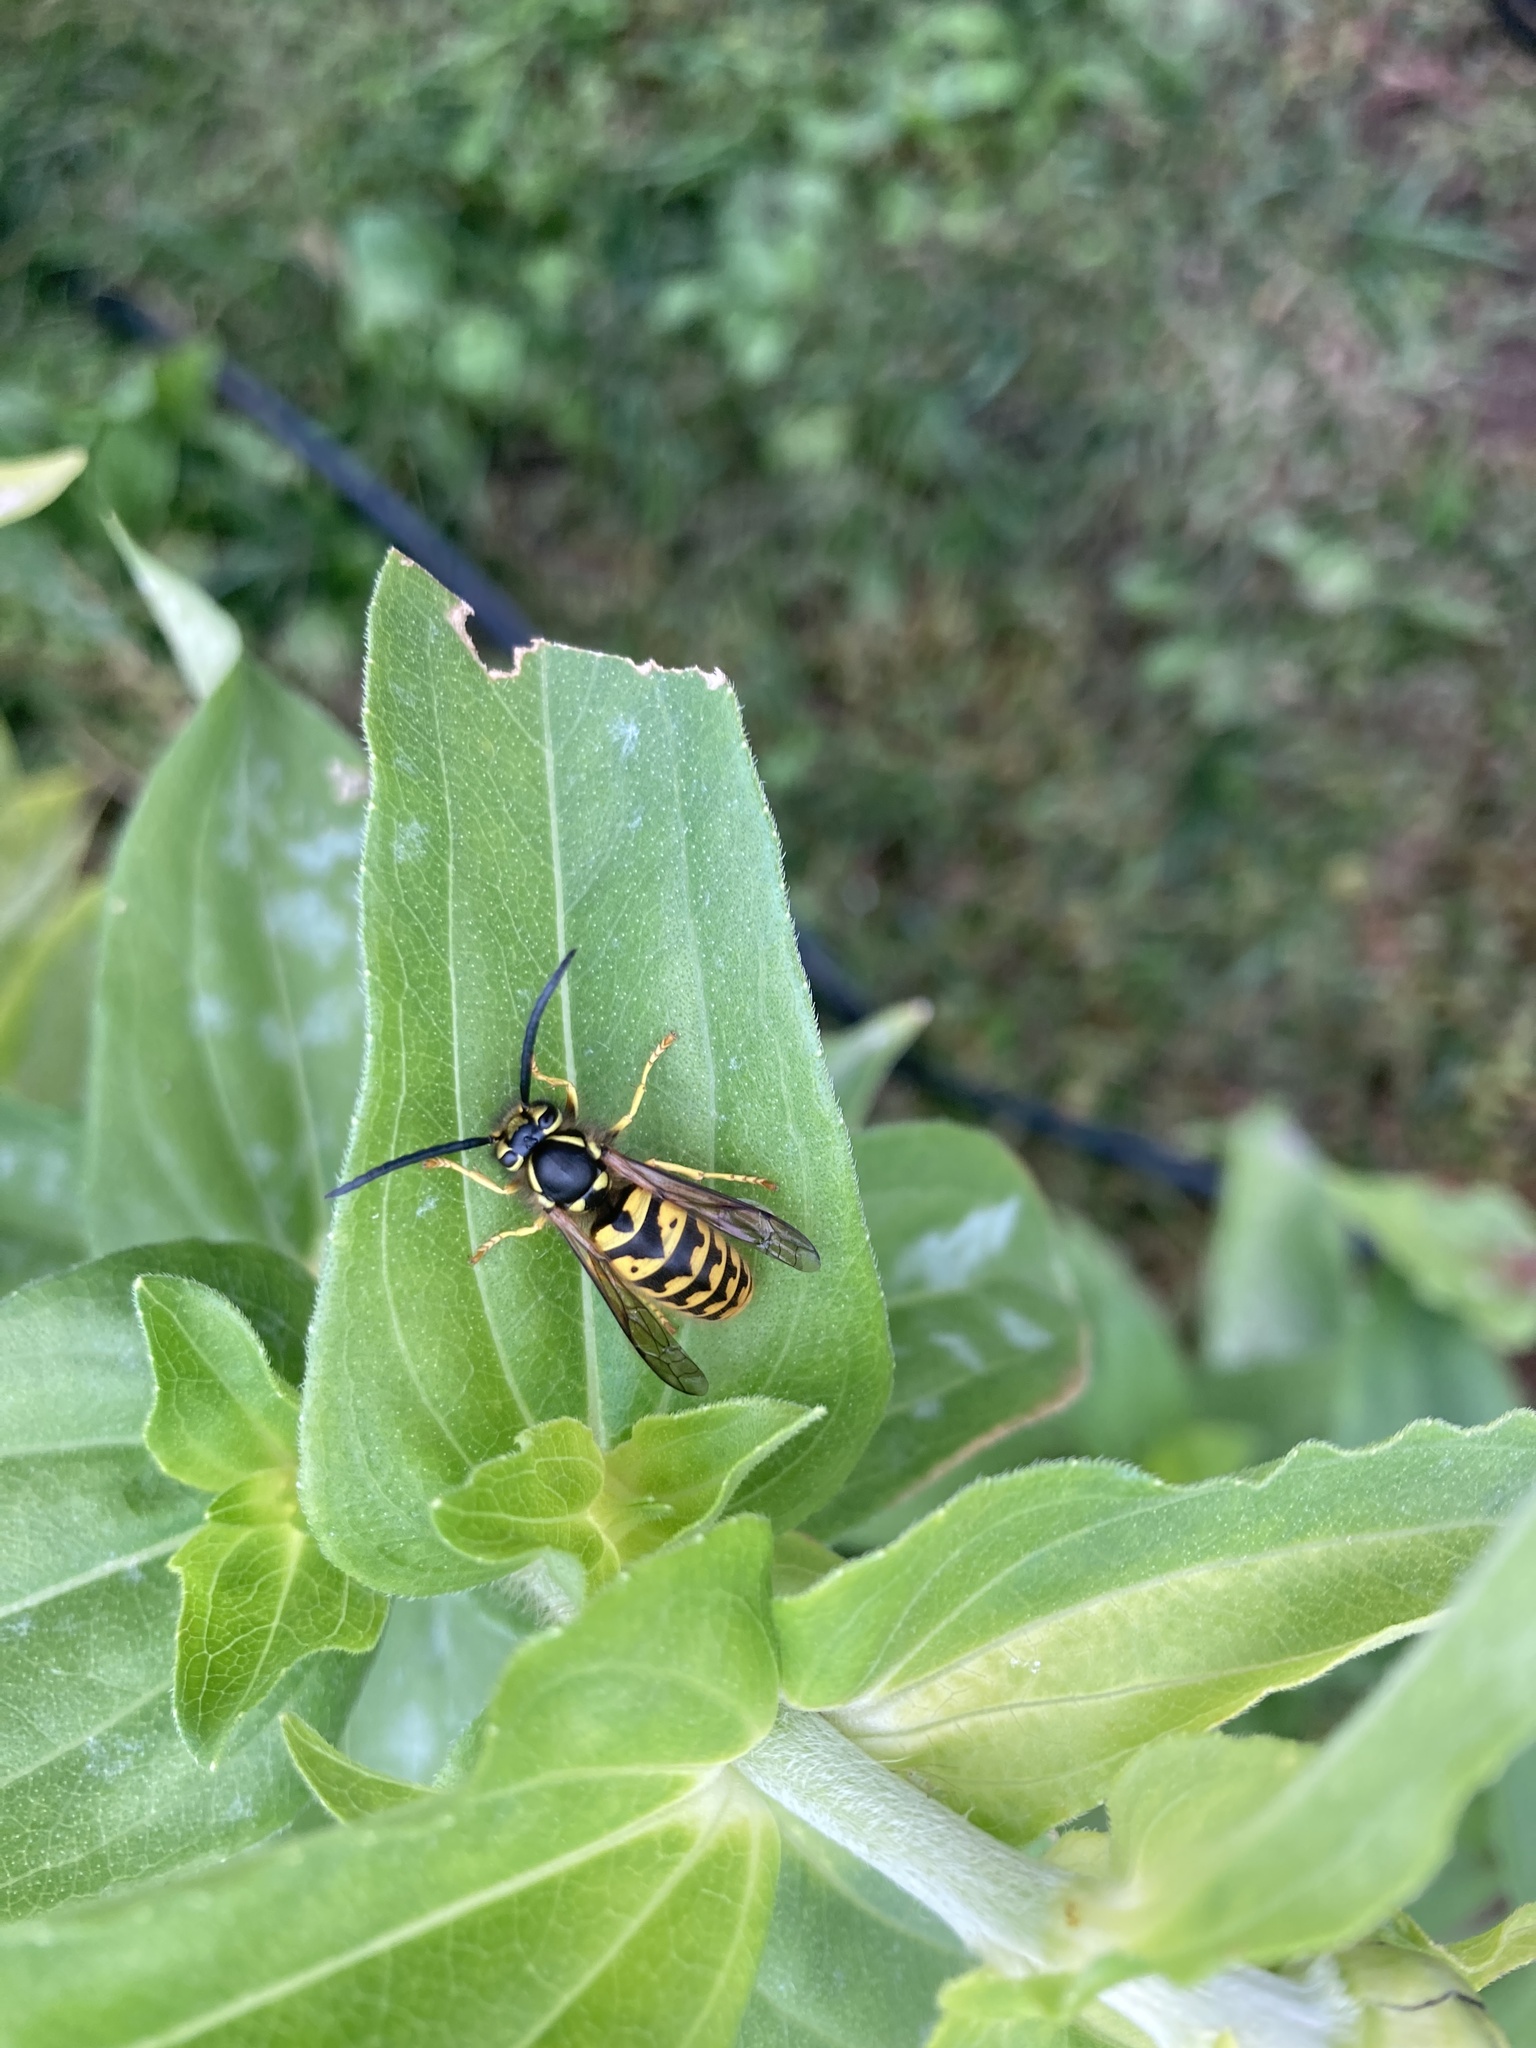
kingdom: Animalia
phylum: Arthropoda
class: Insecta
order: Hymenoptera
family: Vespidae
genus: Vespula
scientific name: Vespula pensylvanica
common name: Western yellowjacket
